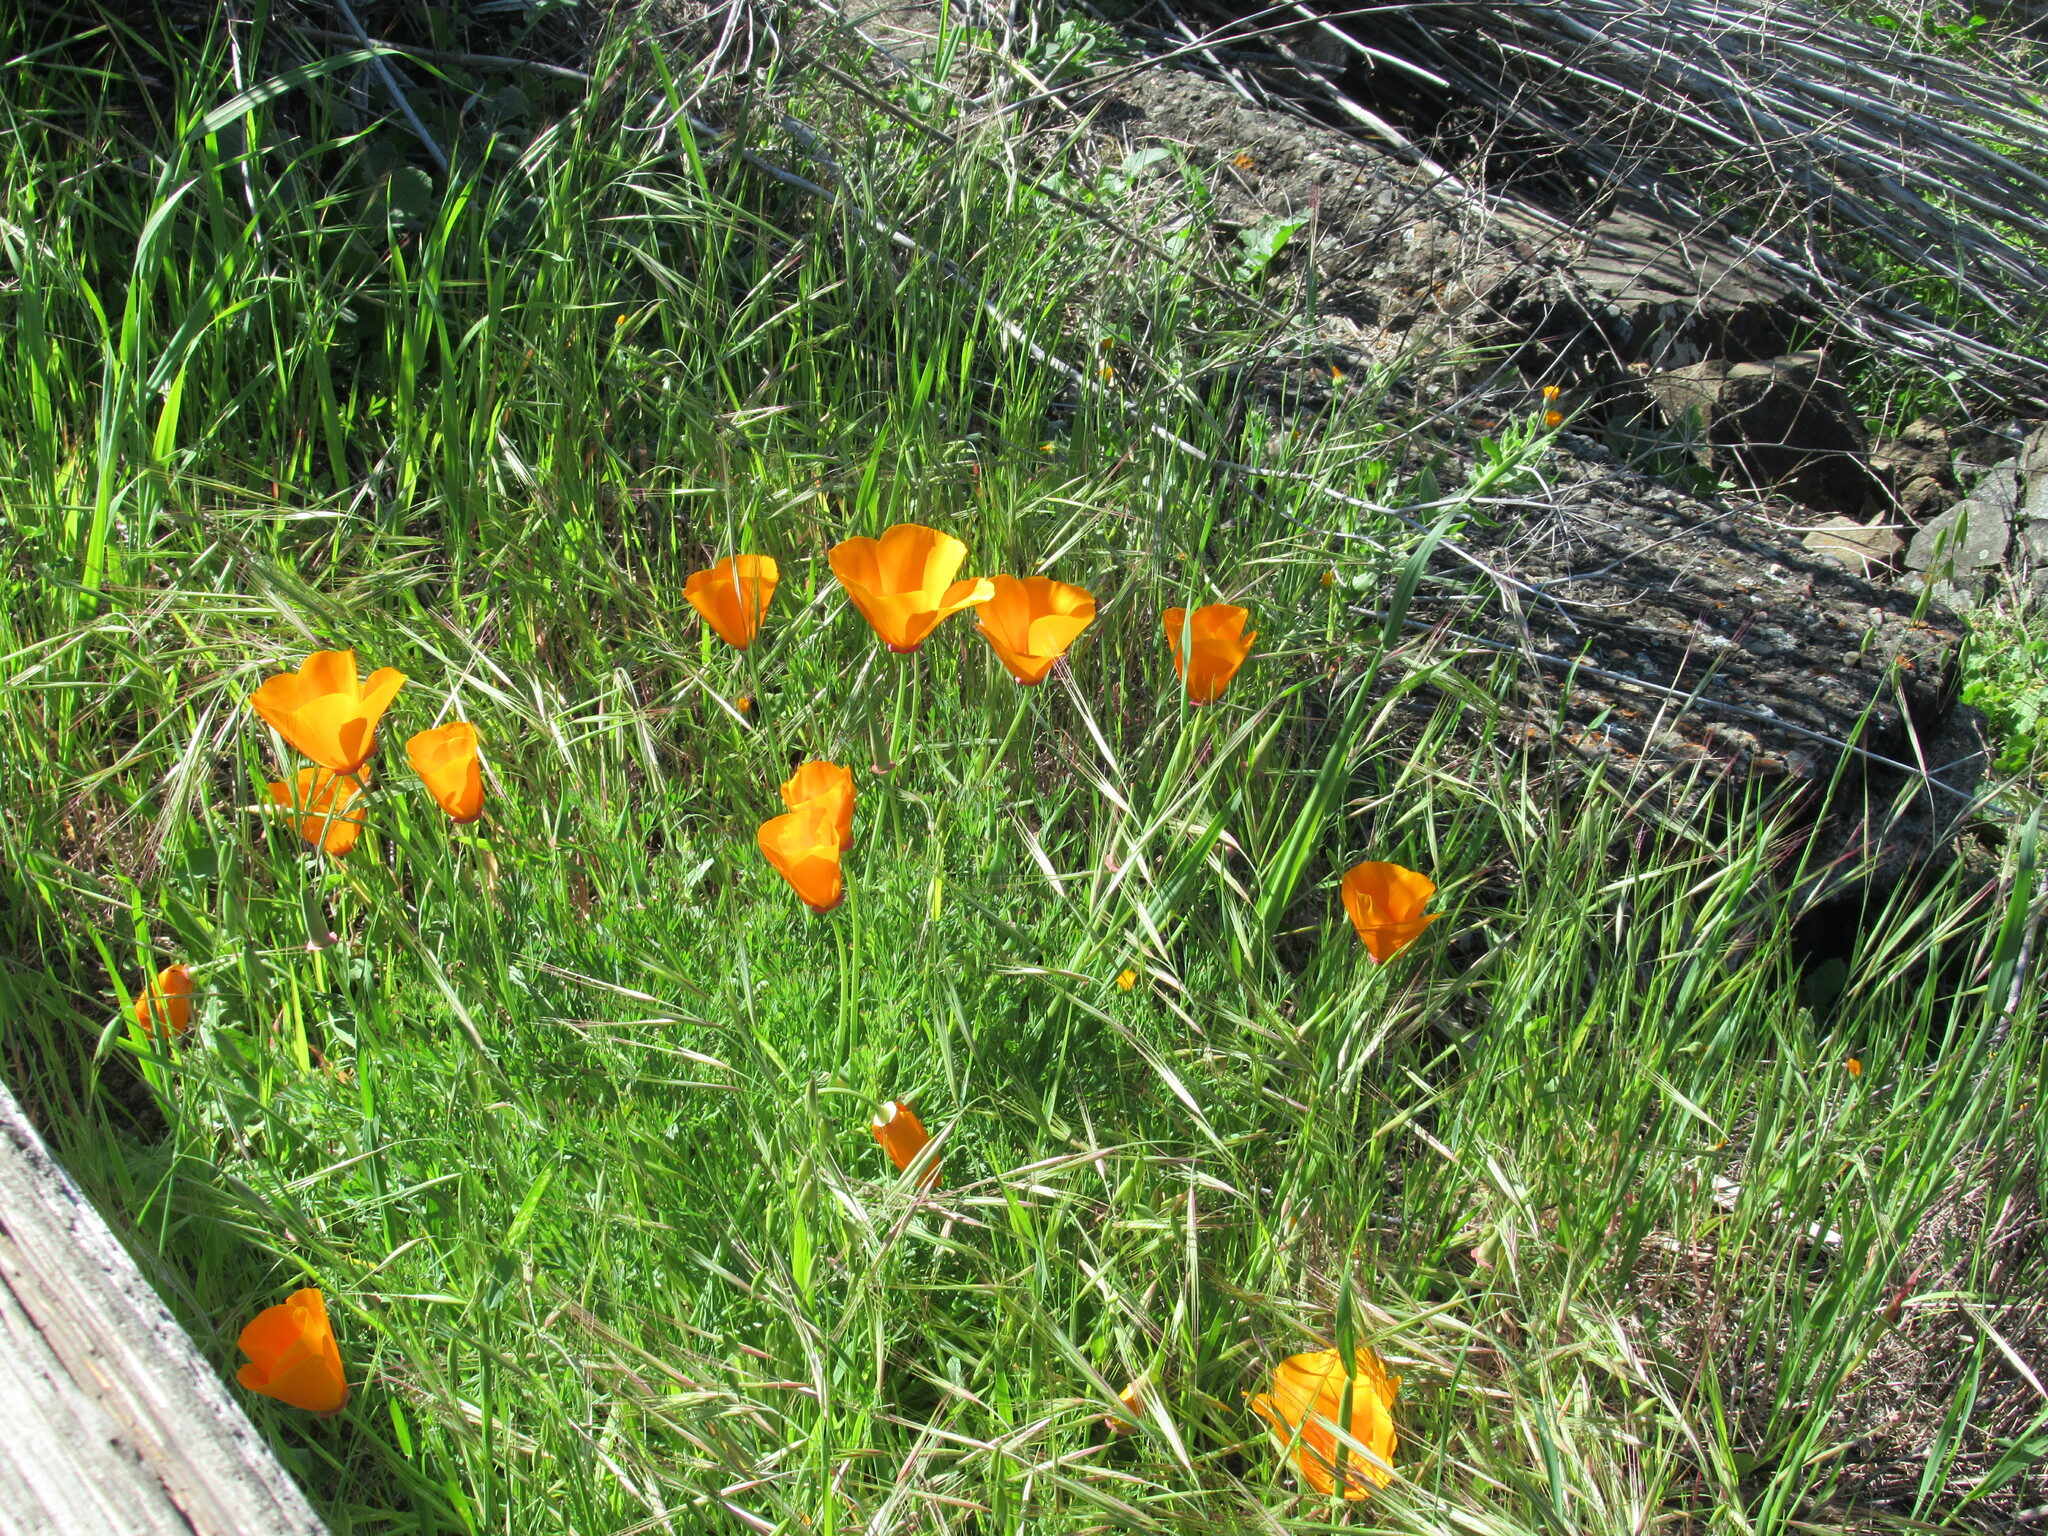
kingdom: Plantae
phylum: Tracheophyta
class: Magnoliopsida
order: Ranunculales
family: Papaveraceae
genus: Eschscholzia
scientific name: Eschscholzia californica
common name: California poppy
